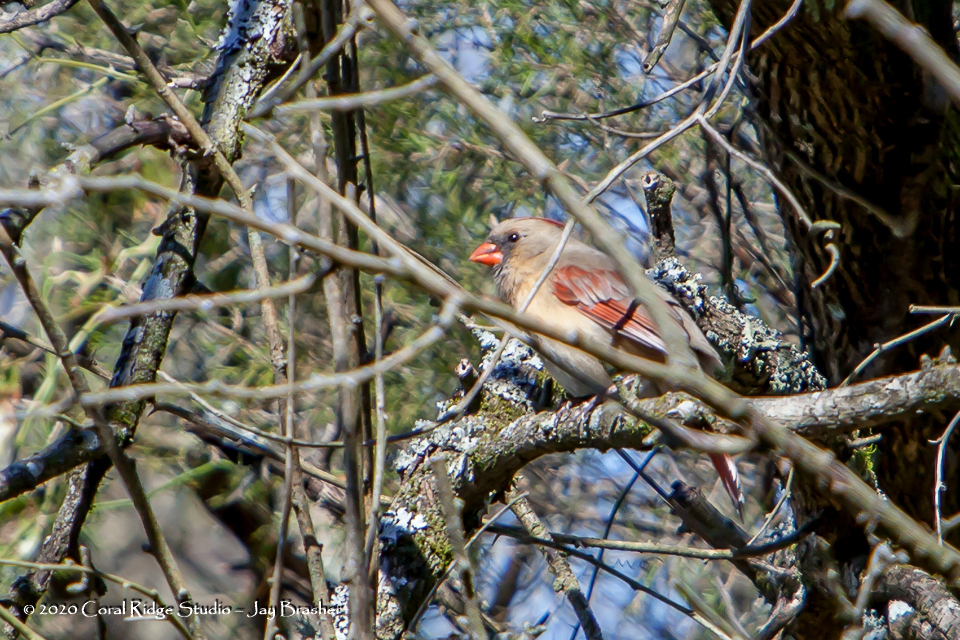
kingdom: Animalia
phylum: Chordata
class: Aves
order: Passeriformes
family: Cardinalidae
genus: Cardinalis
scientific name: Cardinalis cardinalis
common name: Northern cardinal
